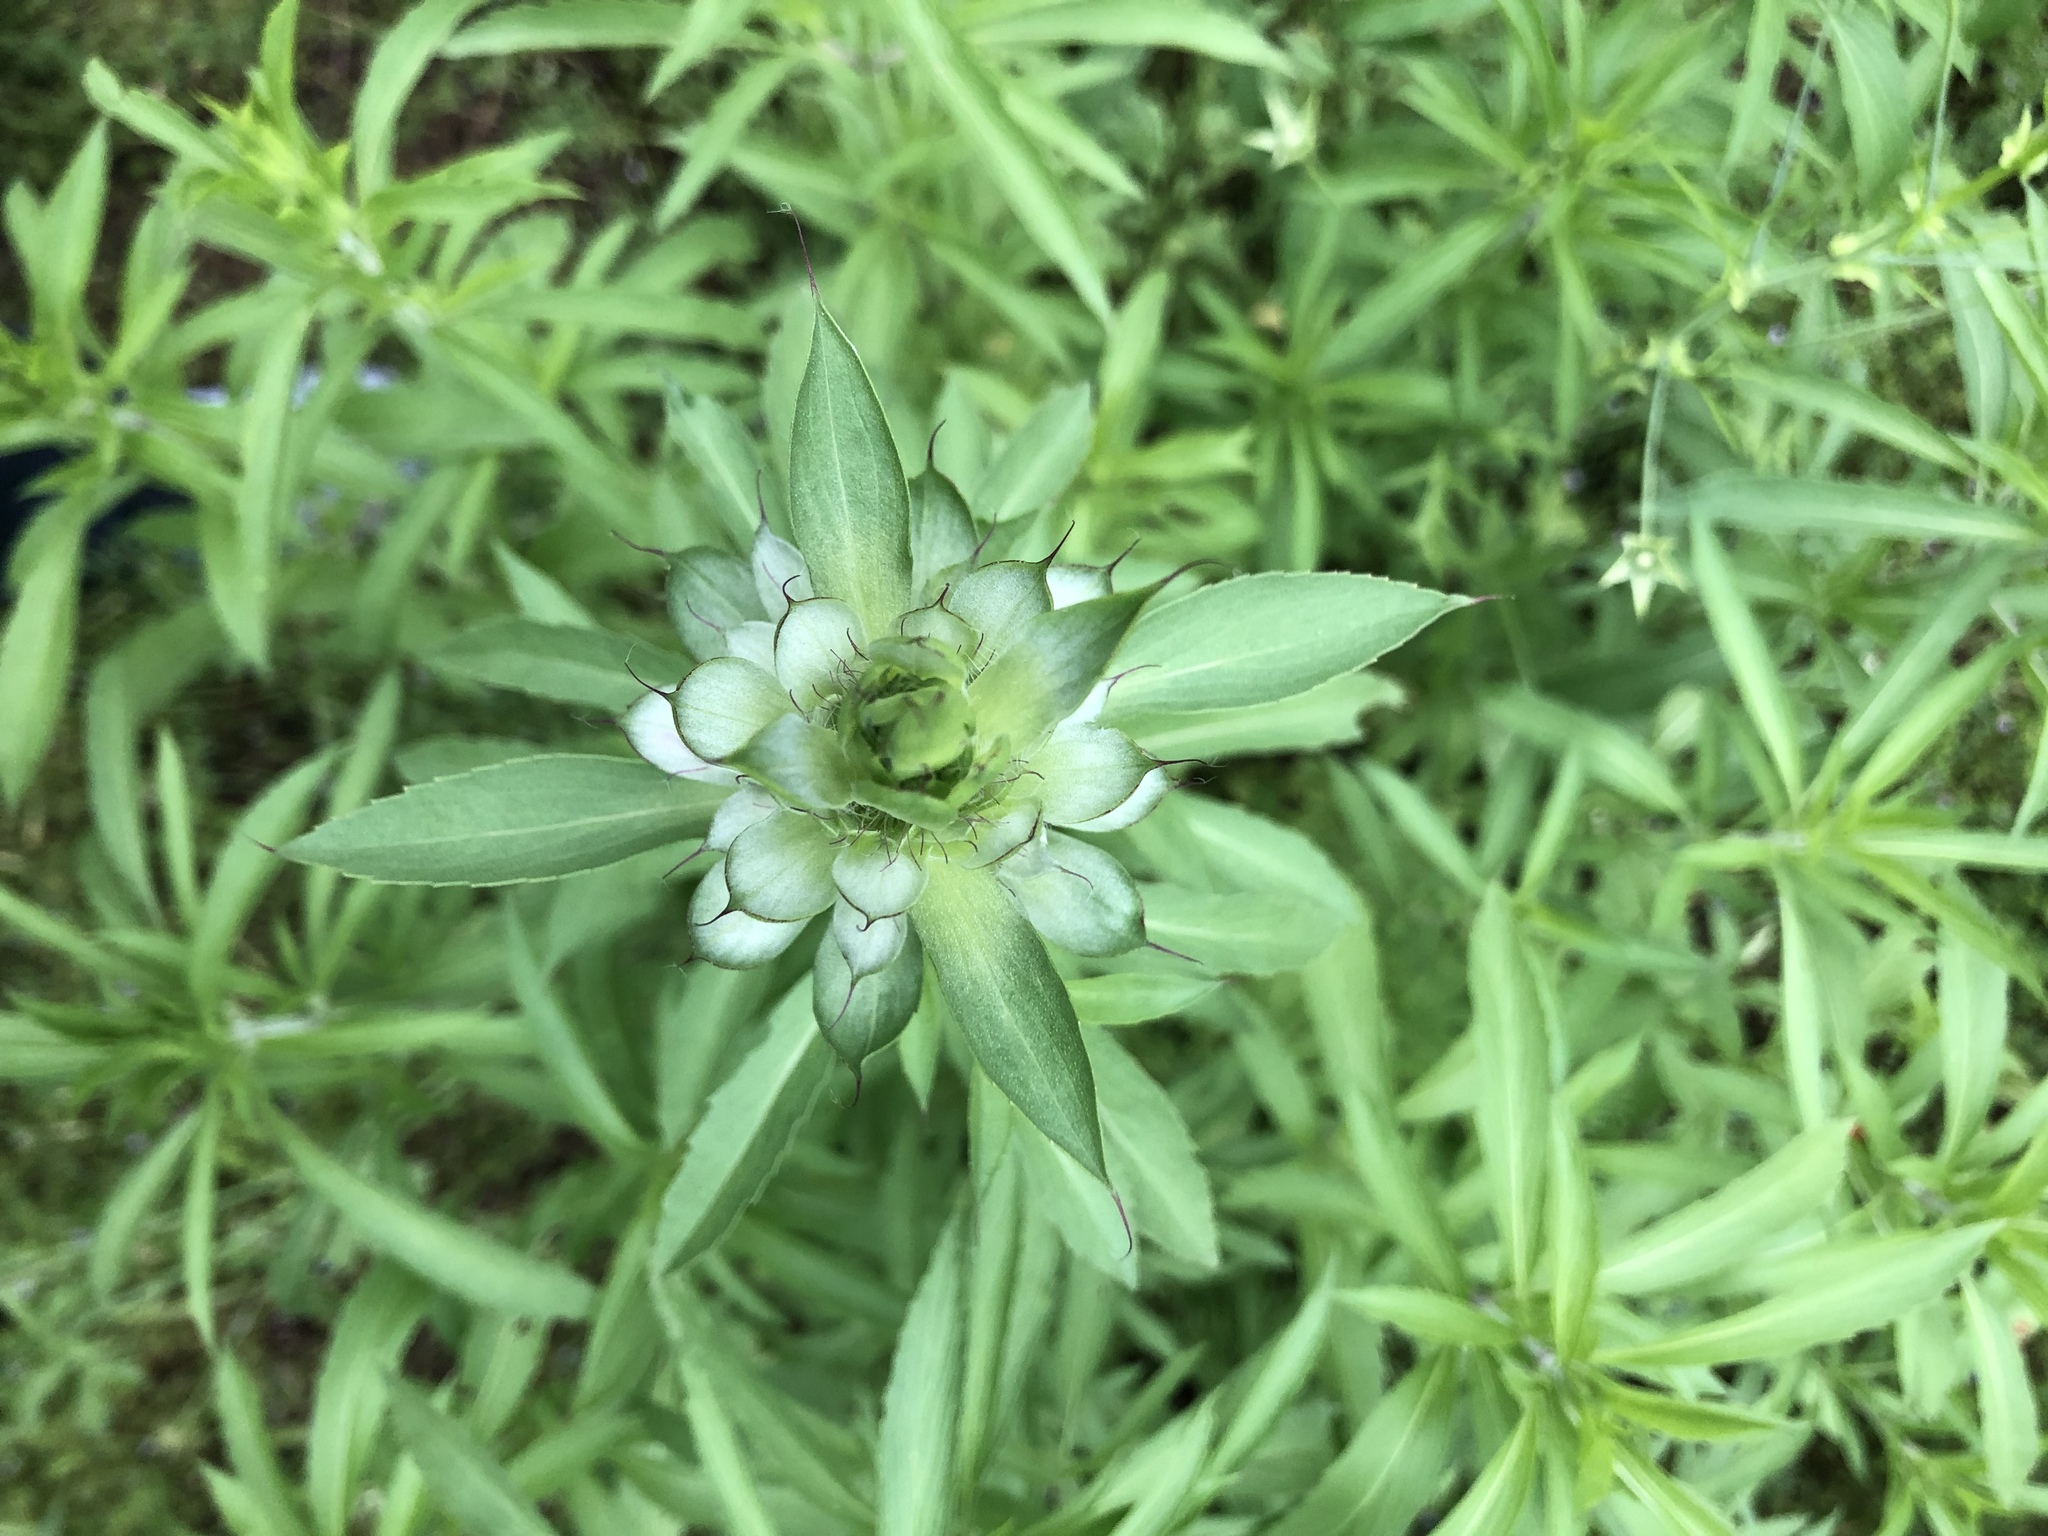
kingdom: Plantae
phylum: Tracheophyta
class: Magnoliopsida
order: Lamiales
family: Lamiaceae
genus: Monarda
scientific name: Monarda citriodora
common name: Lemon beebalm
